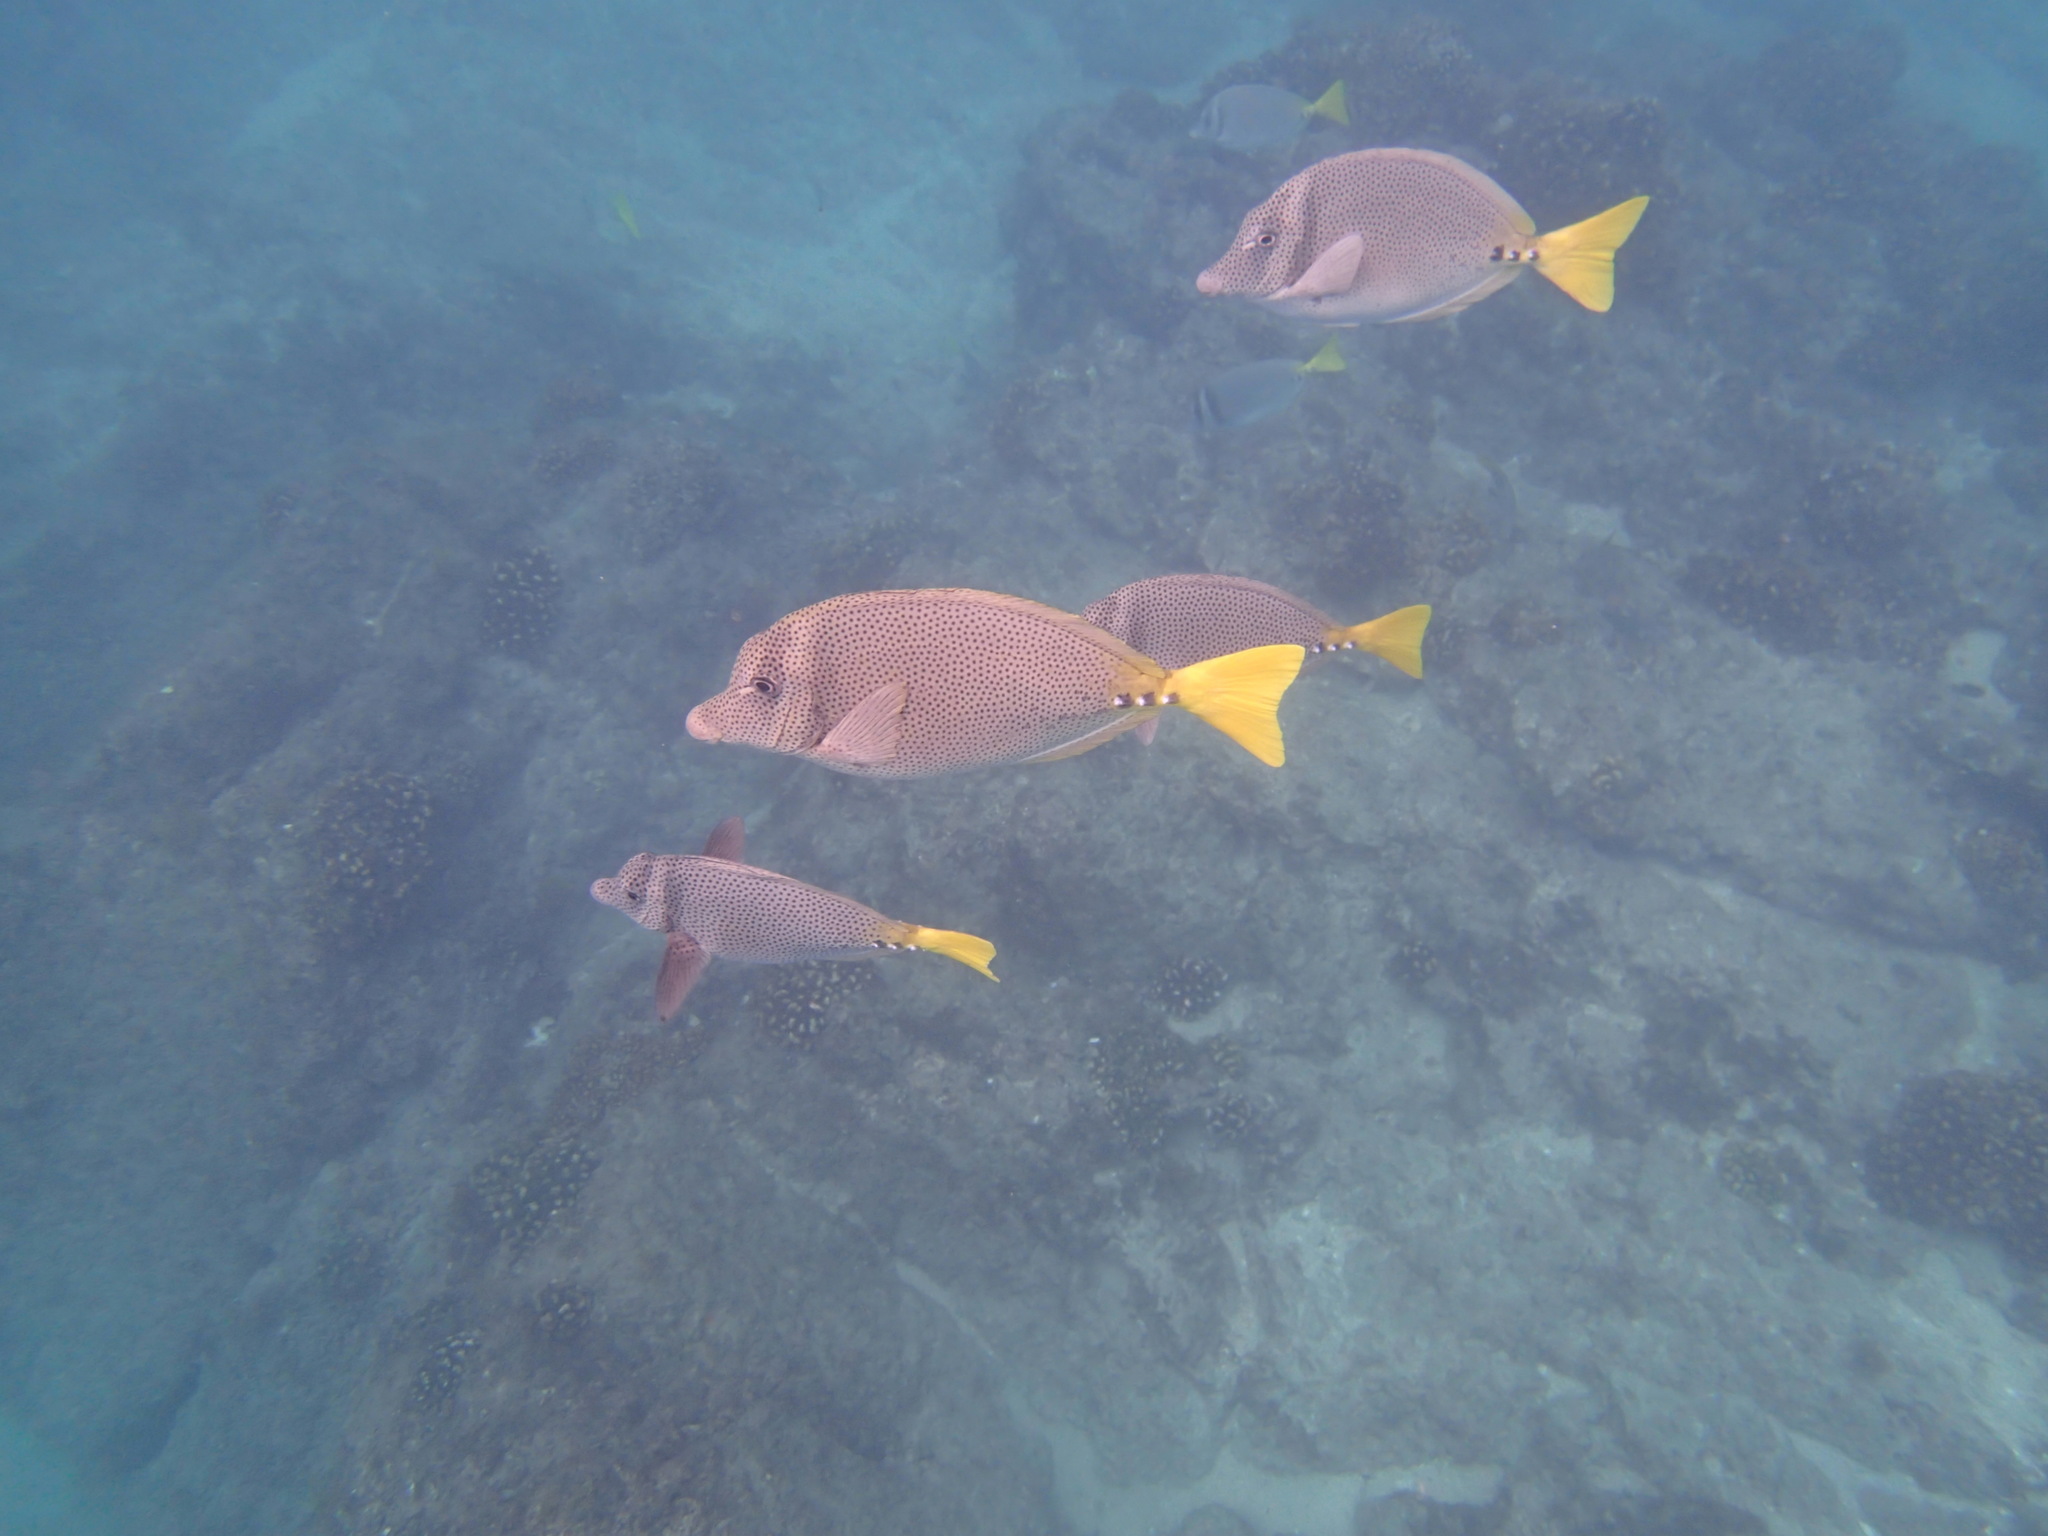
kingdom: Animalia
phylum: Chordata
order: Perciformes
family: Acanthuridae
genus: Prionurus
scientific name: Prionurus laticlavius
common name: Razor surgeonfish
